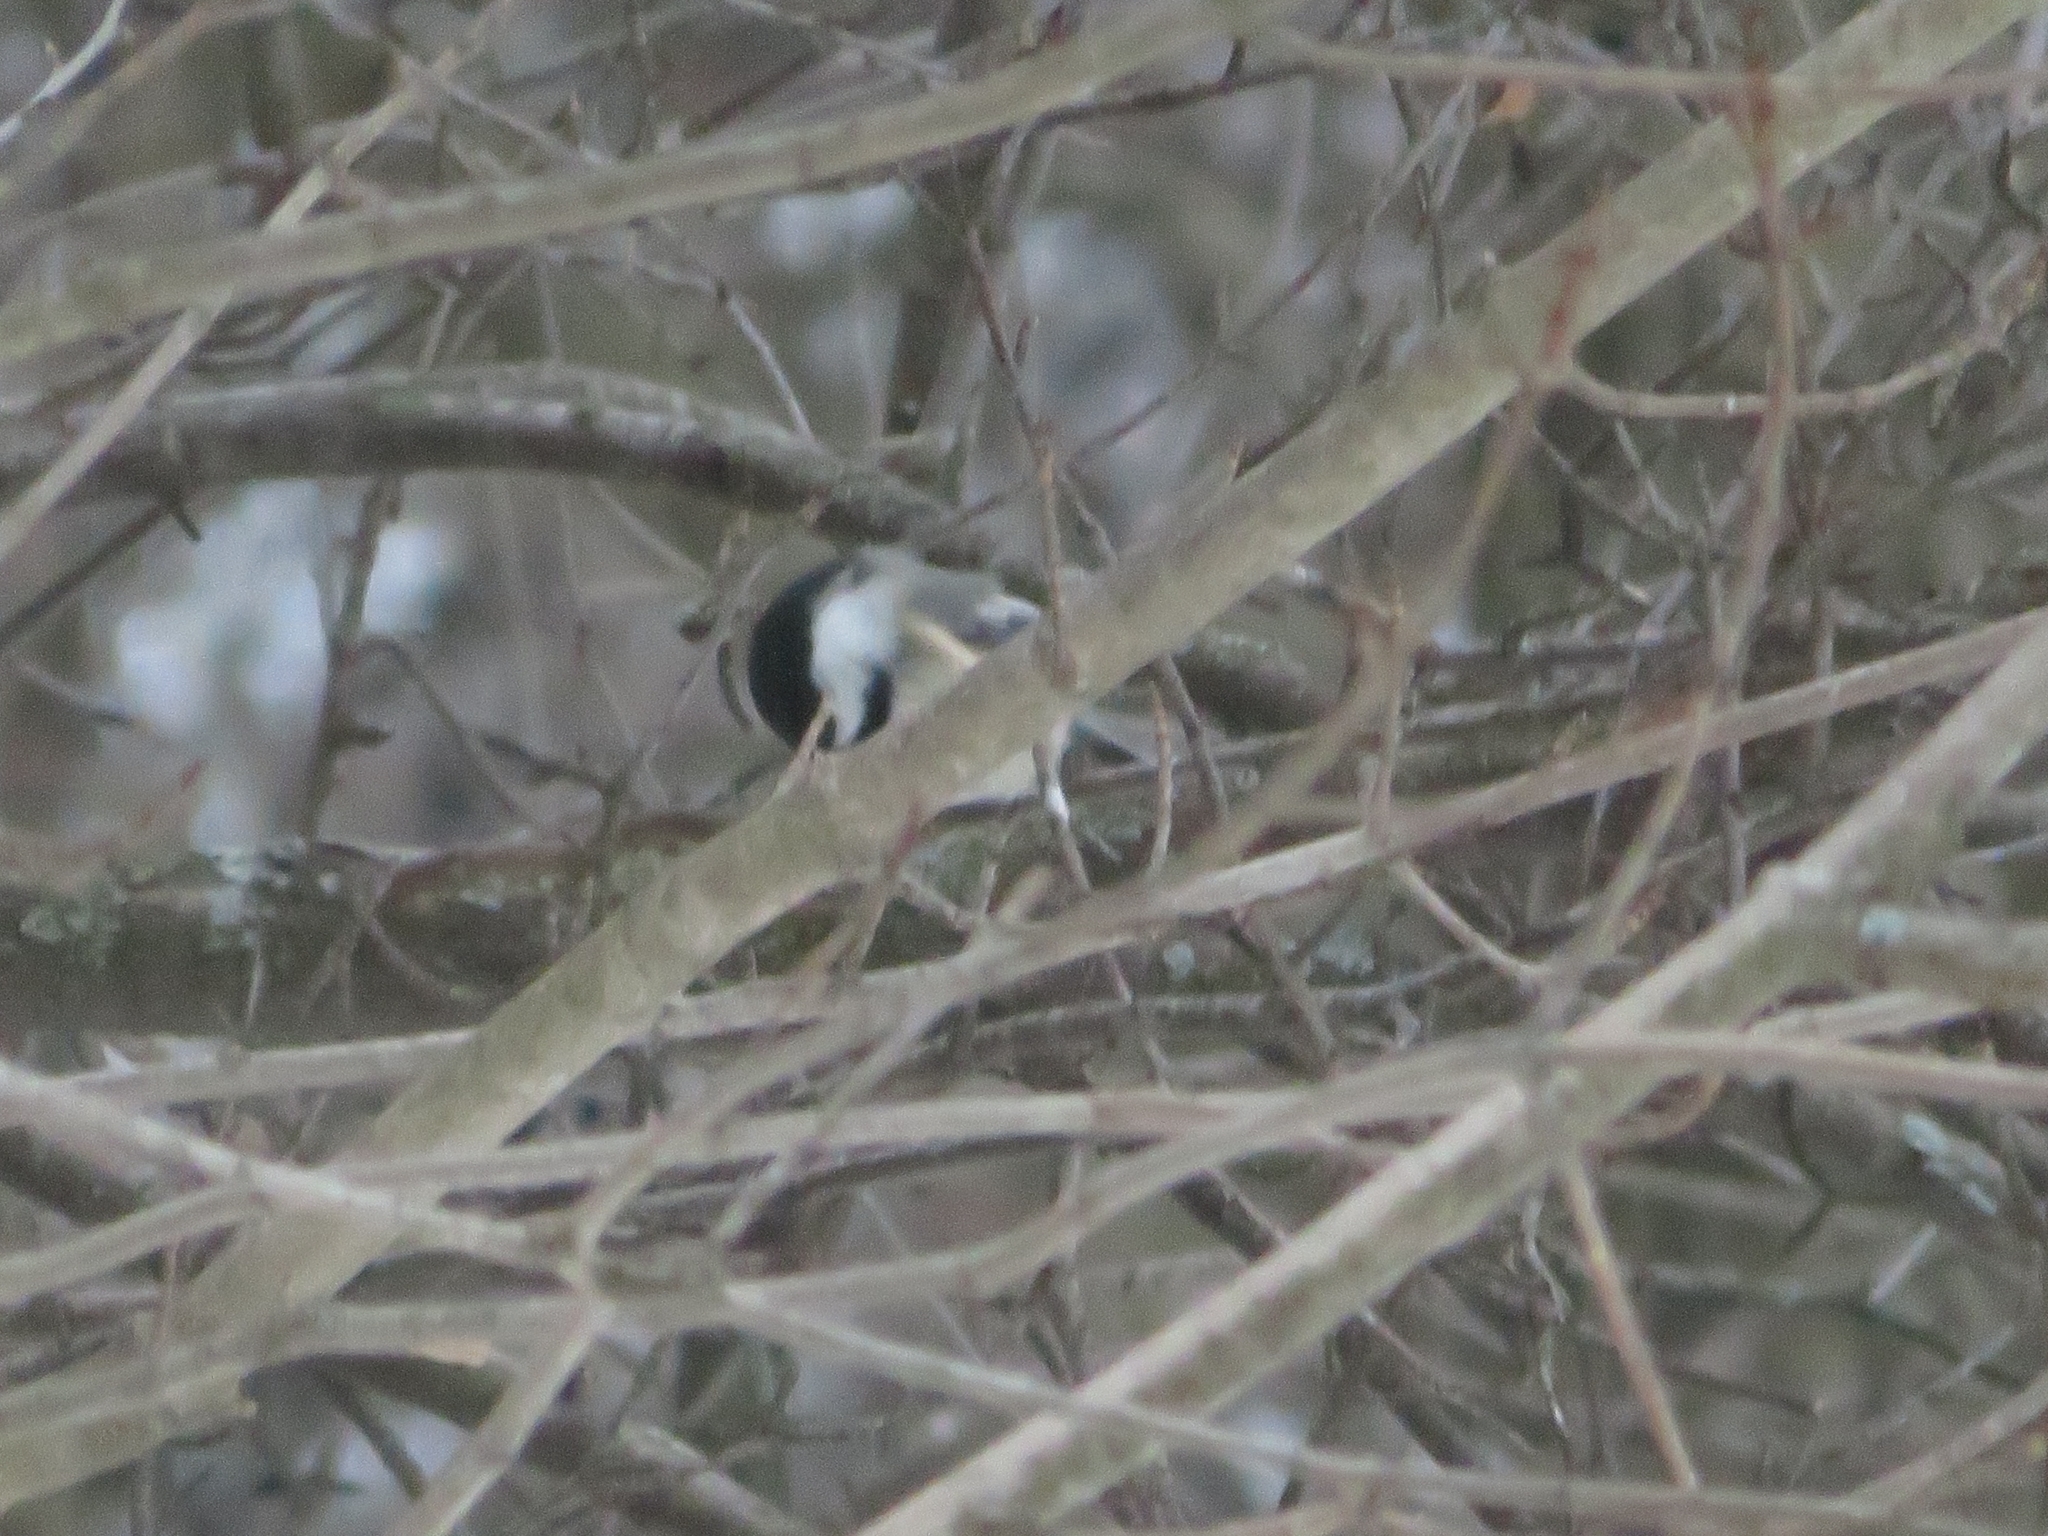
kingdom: Animalia
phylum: Chordata
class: Aves
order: Passeriformes
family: Paridae
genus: Poecile
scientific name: Poecile atricapillus
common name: Black-capped chickadee
